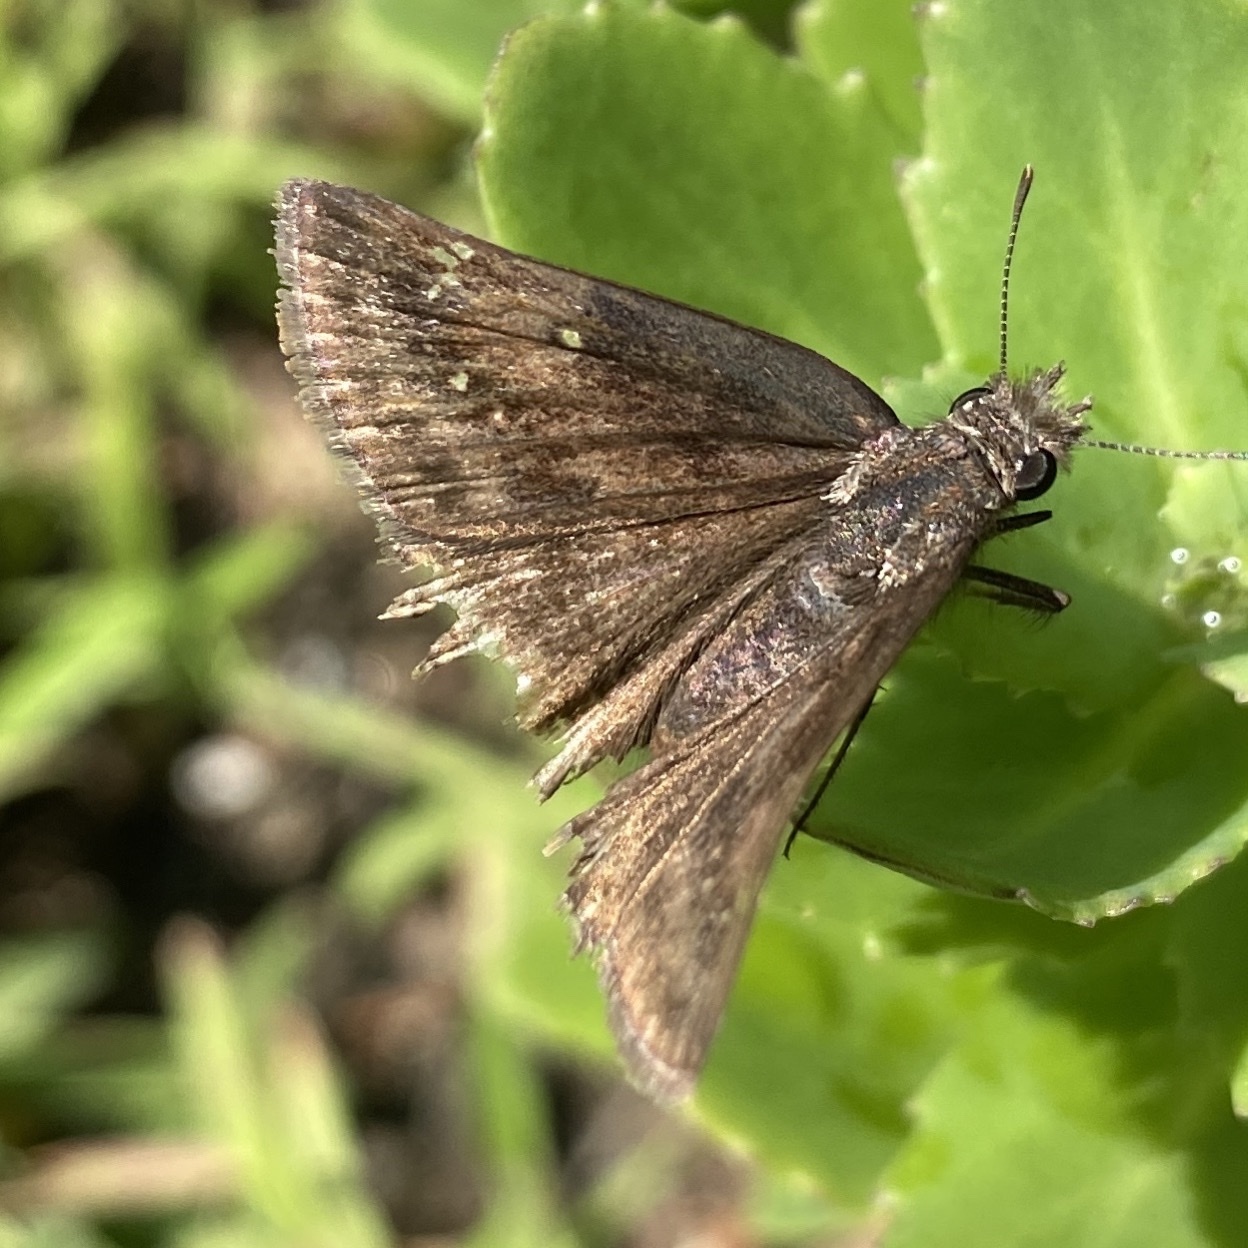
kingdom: Animalia
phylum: Arthropoda
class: Insecta
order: Lepidoptera
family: Hesperiidae
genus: Erynnis
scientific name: Erynnis baptisiae
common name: Wild indigo duskywing
